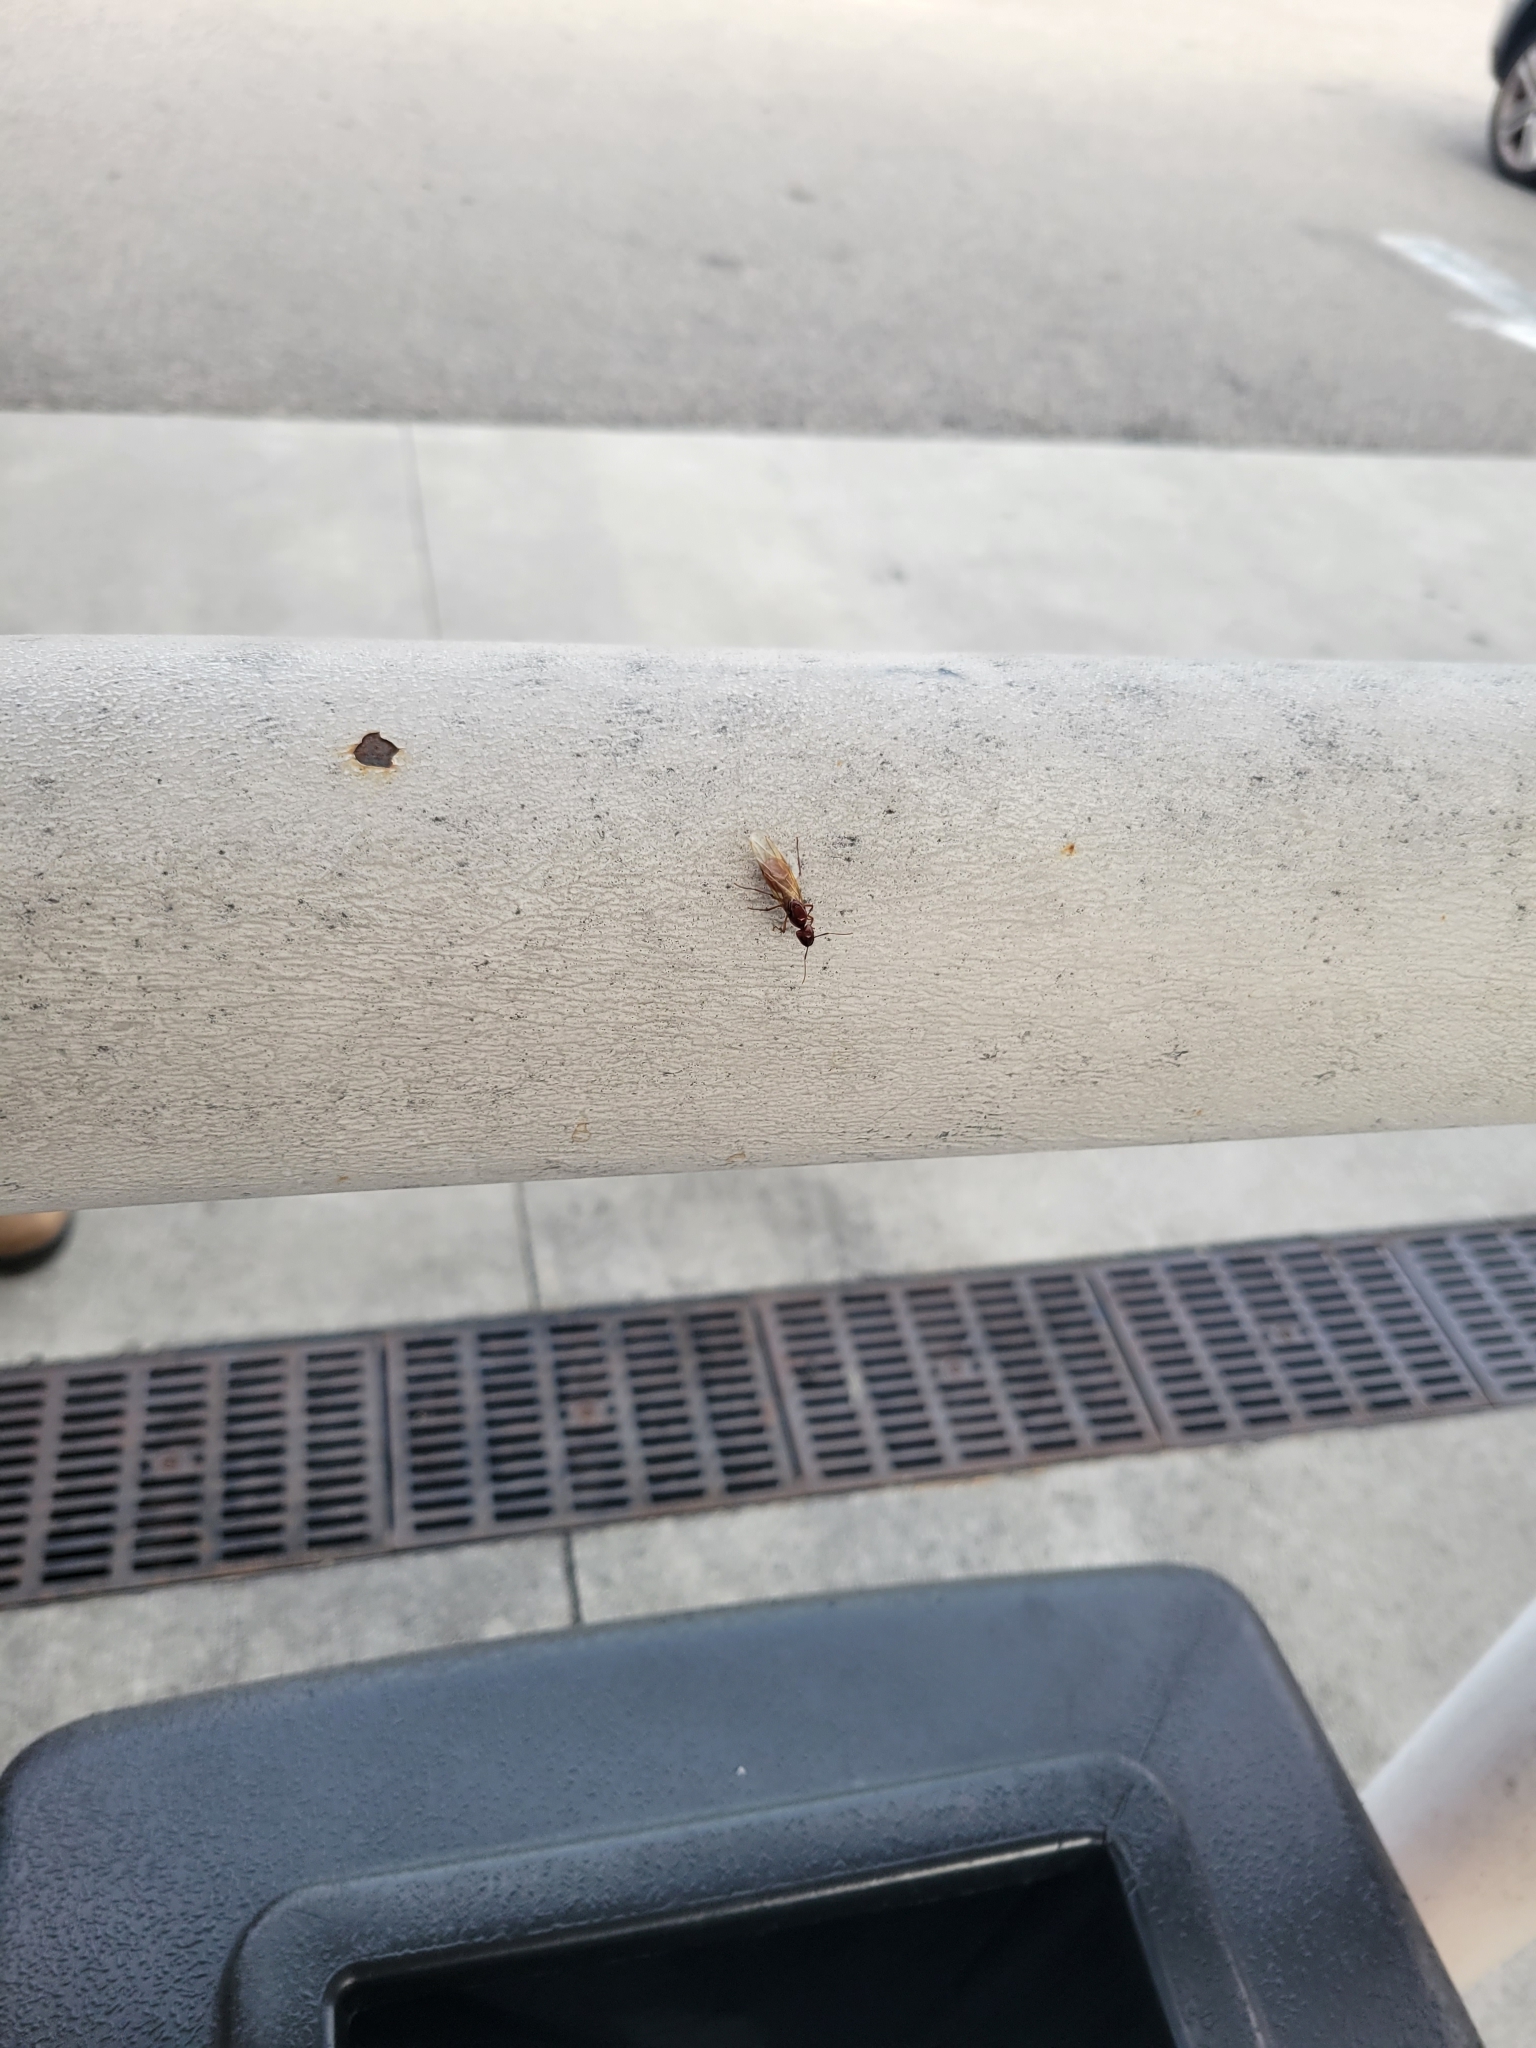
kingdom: Animalia
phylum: Arthropoda
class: Insecta
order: Hymenoptera
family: Formicidae
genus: Camponotus
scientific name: Camponotus castaneus
